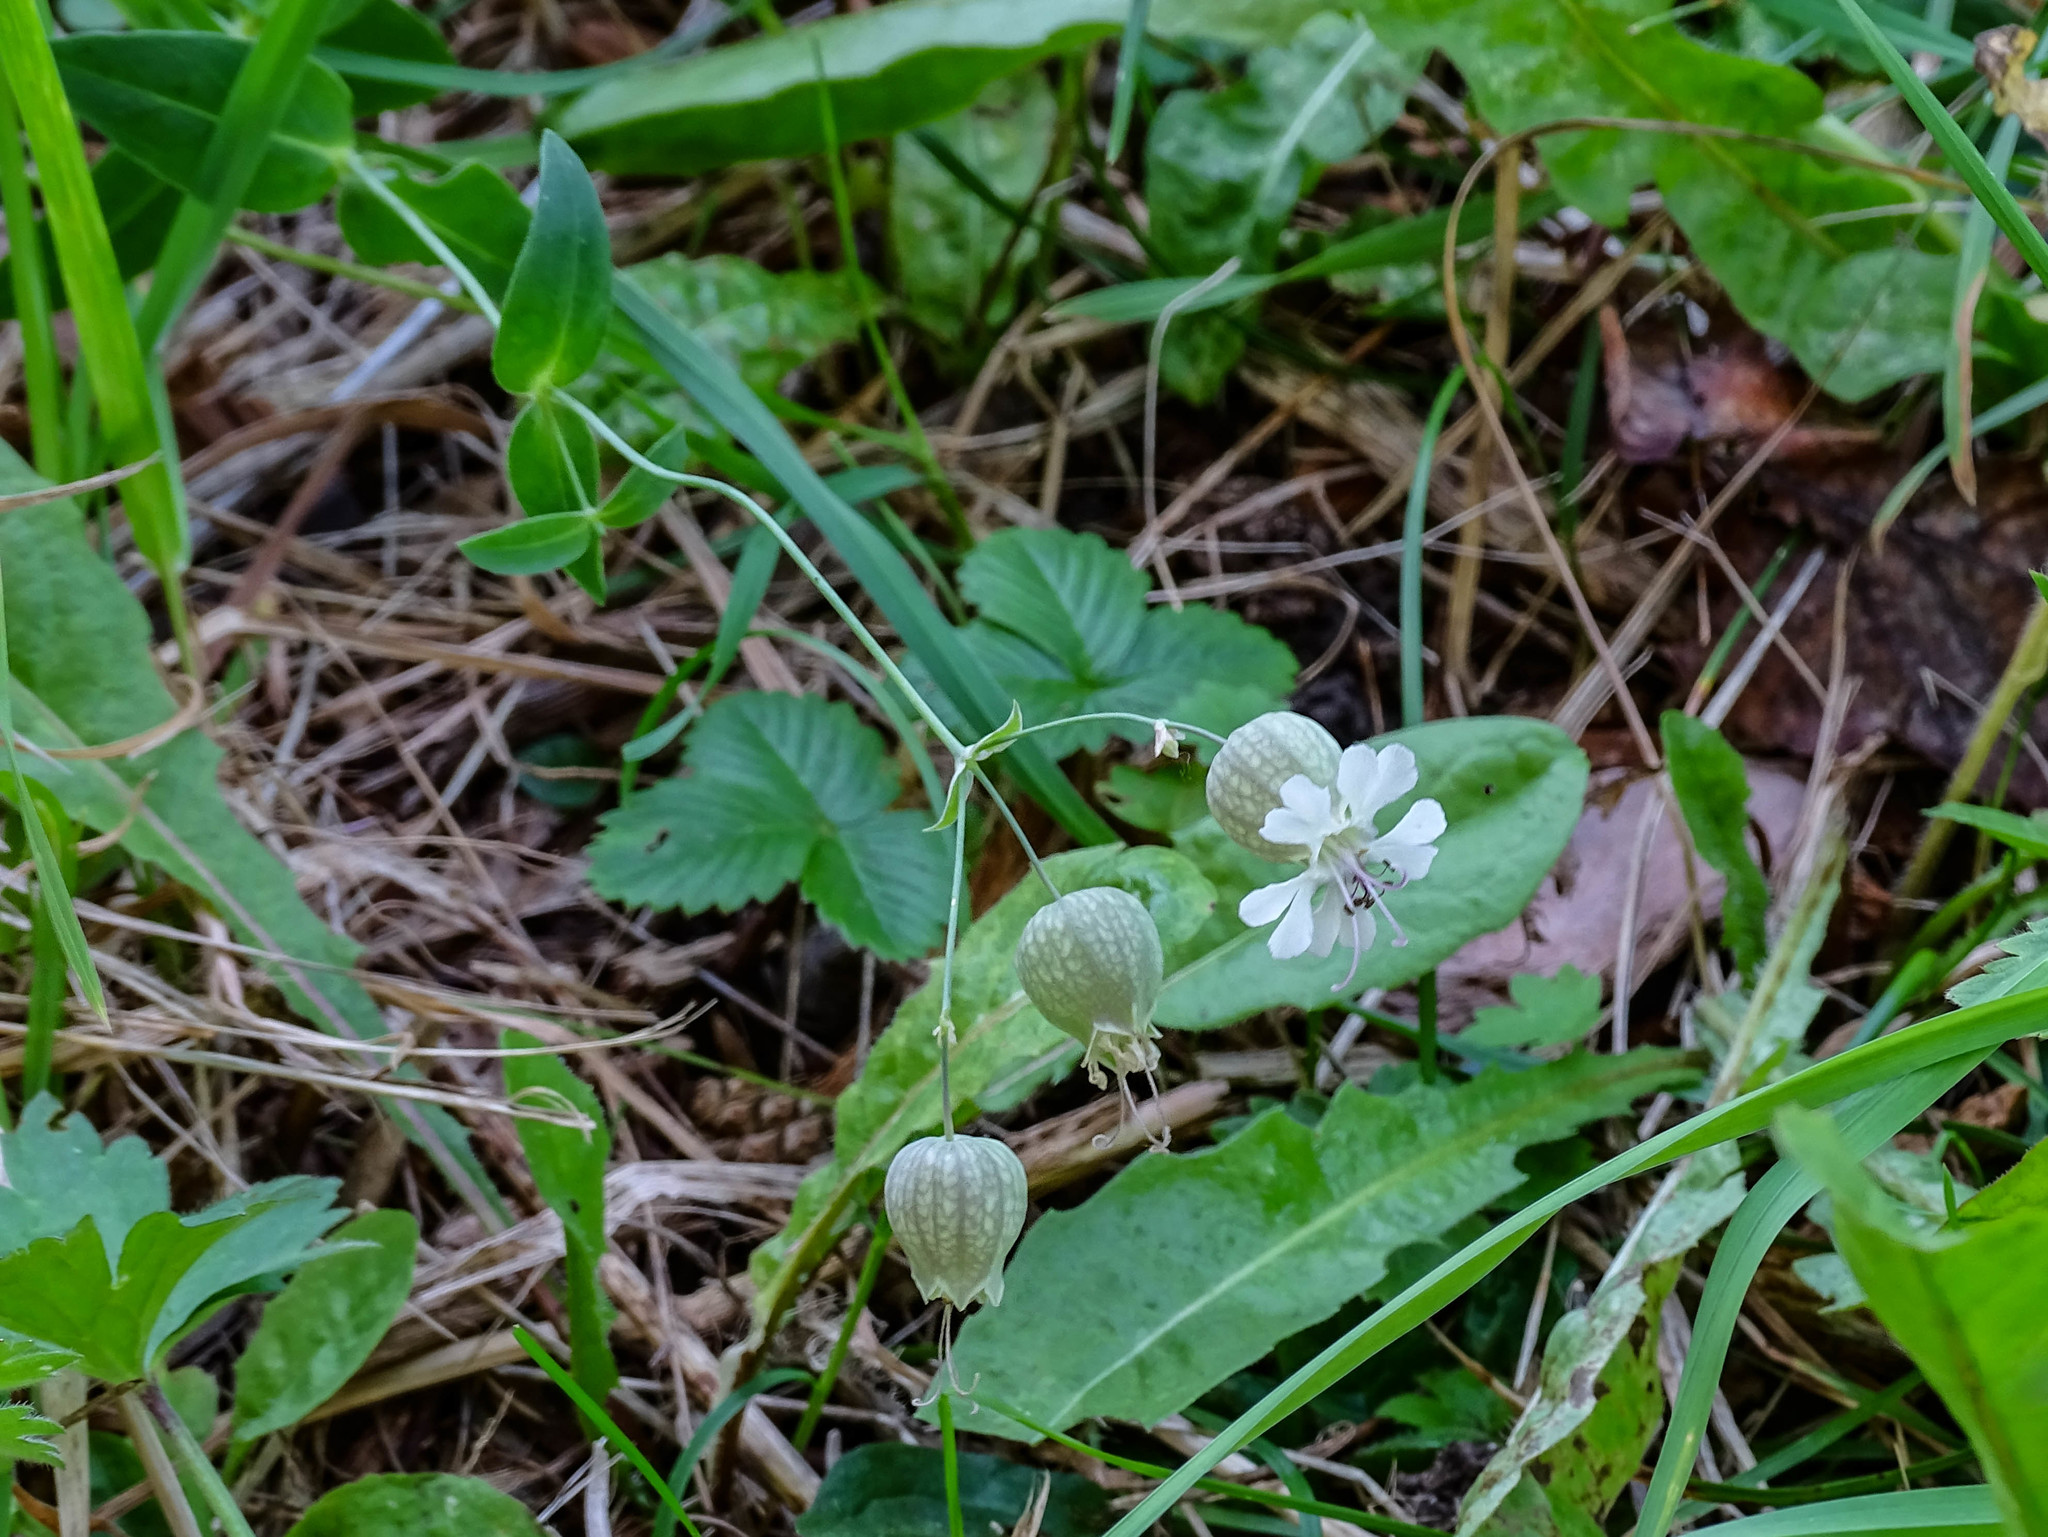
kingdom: Plantae
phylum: Tracheophyta
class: Magnoliopsida
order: Caryophyllales
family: Caryophyllaceae
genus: Silene
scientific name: Silene vulgaris
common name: Bladder campion
